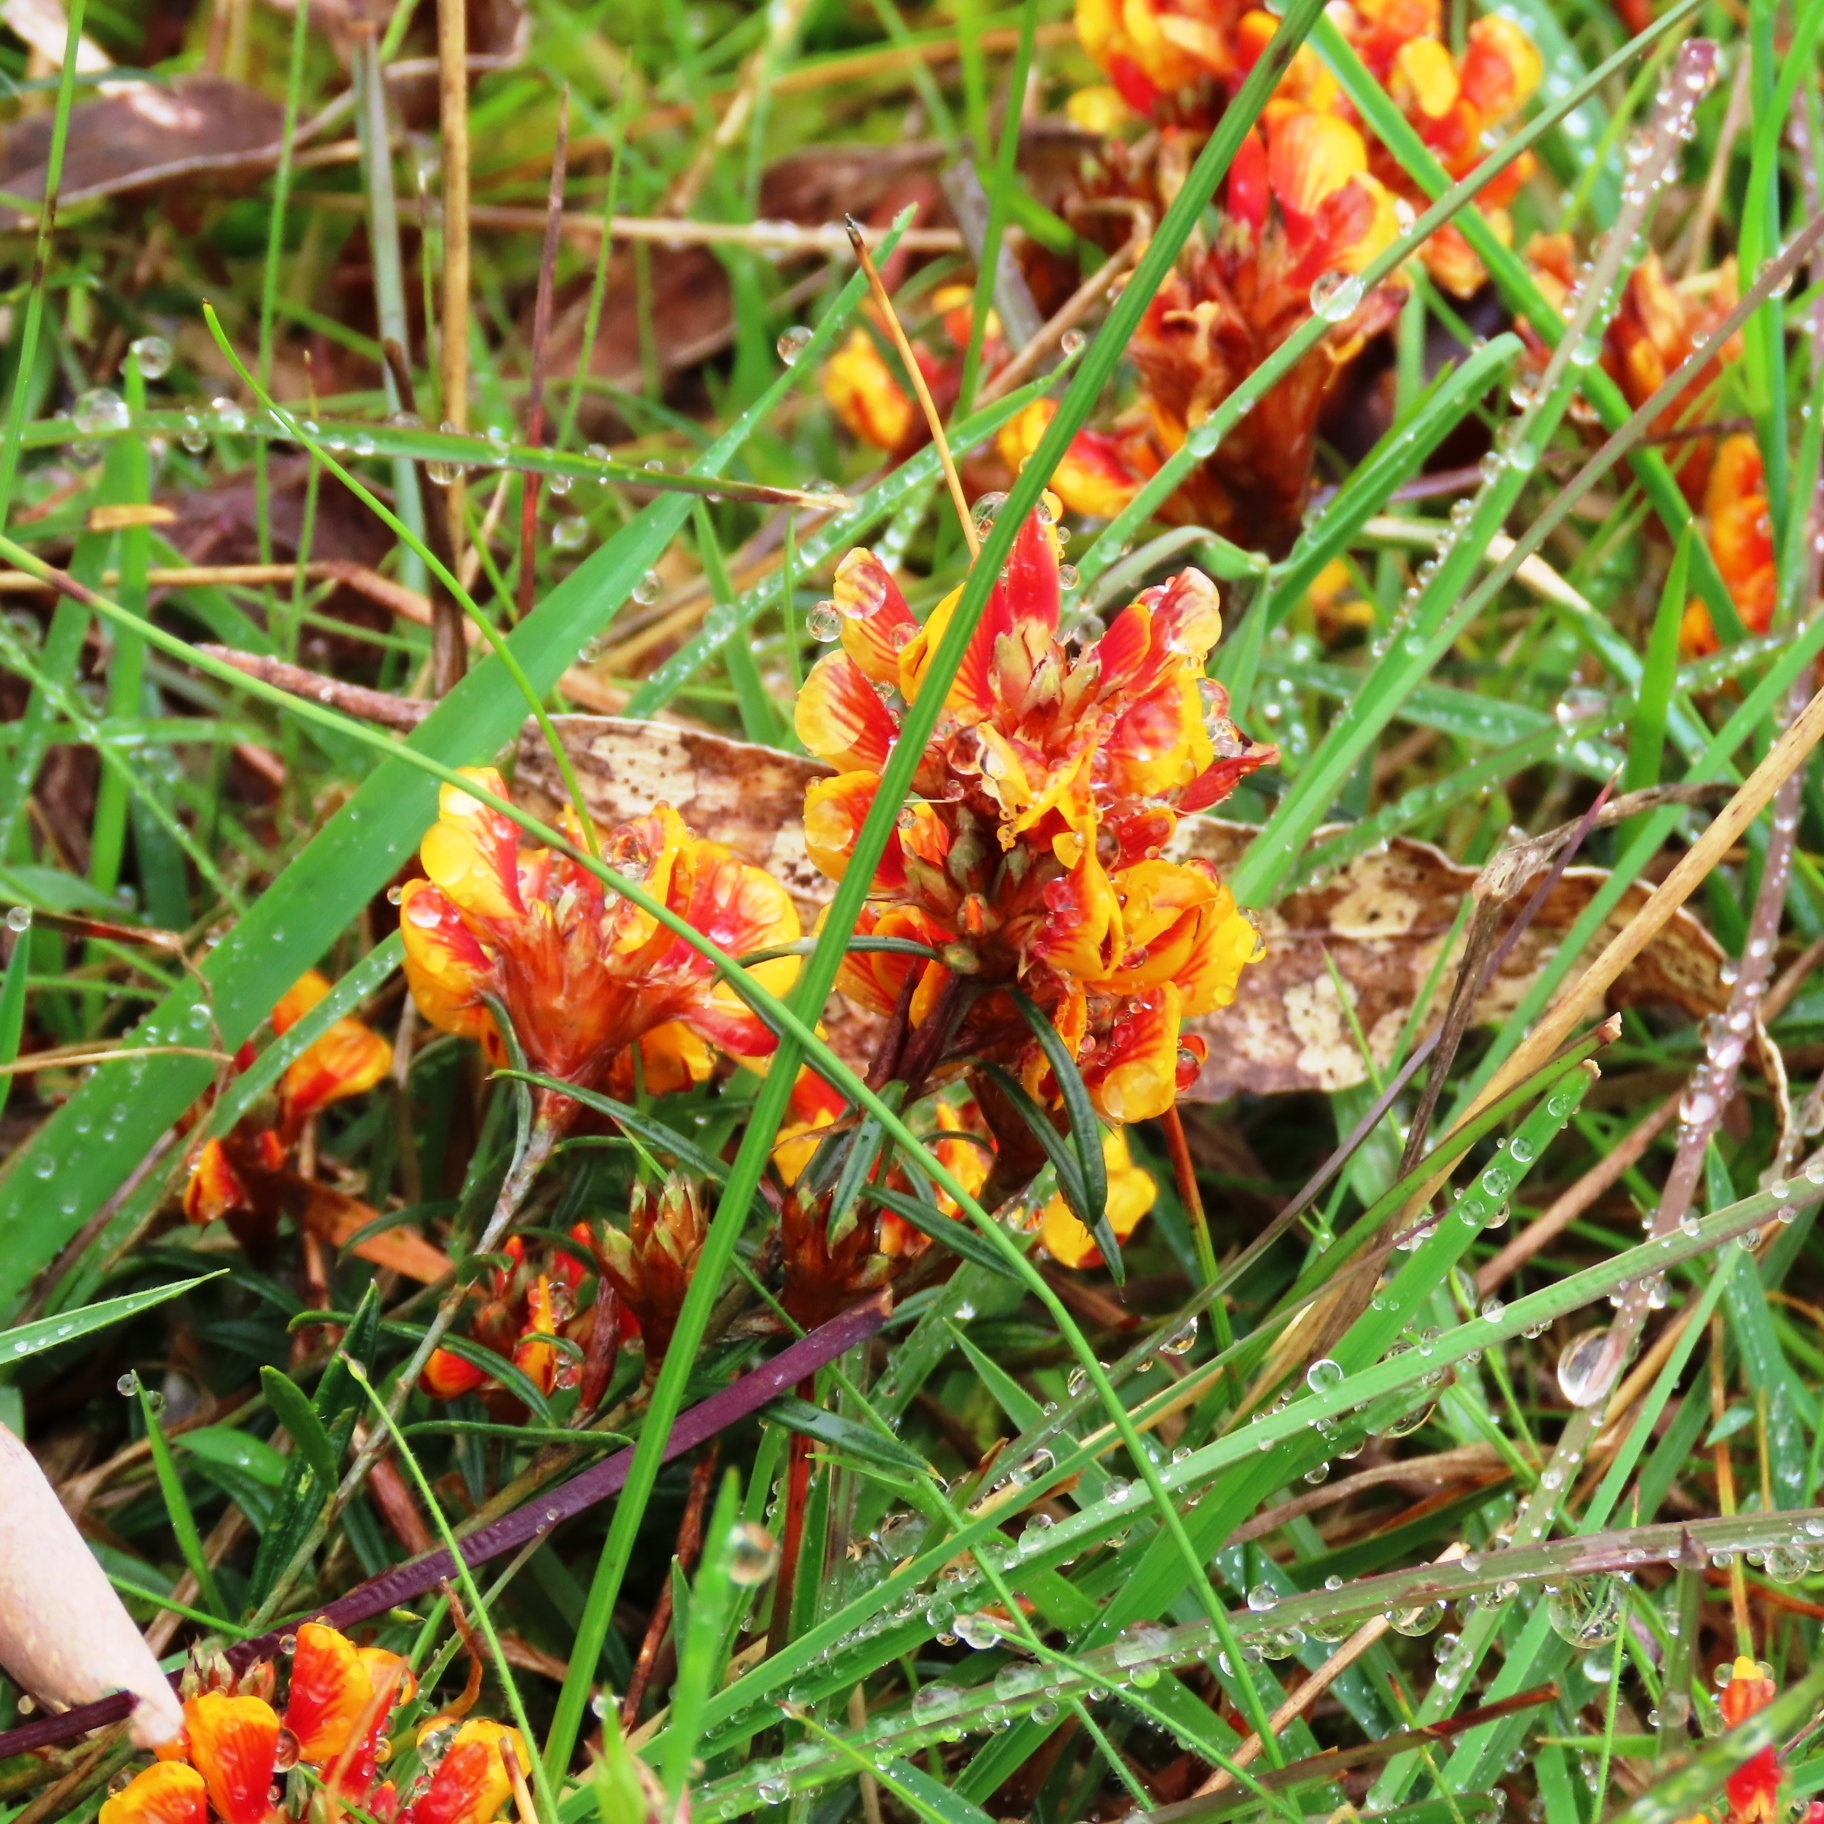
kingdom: Plantae
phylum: Tracheophyta
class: Magnoliopsida
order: Fabales
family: Fabaceae
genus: Dillwynia
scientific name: Dillwynia sericea
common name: Showy parrot-pea
